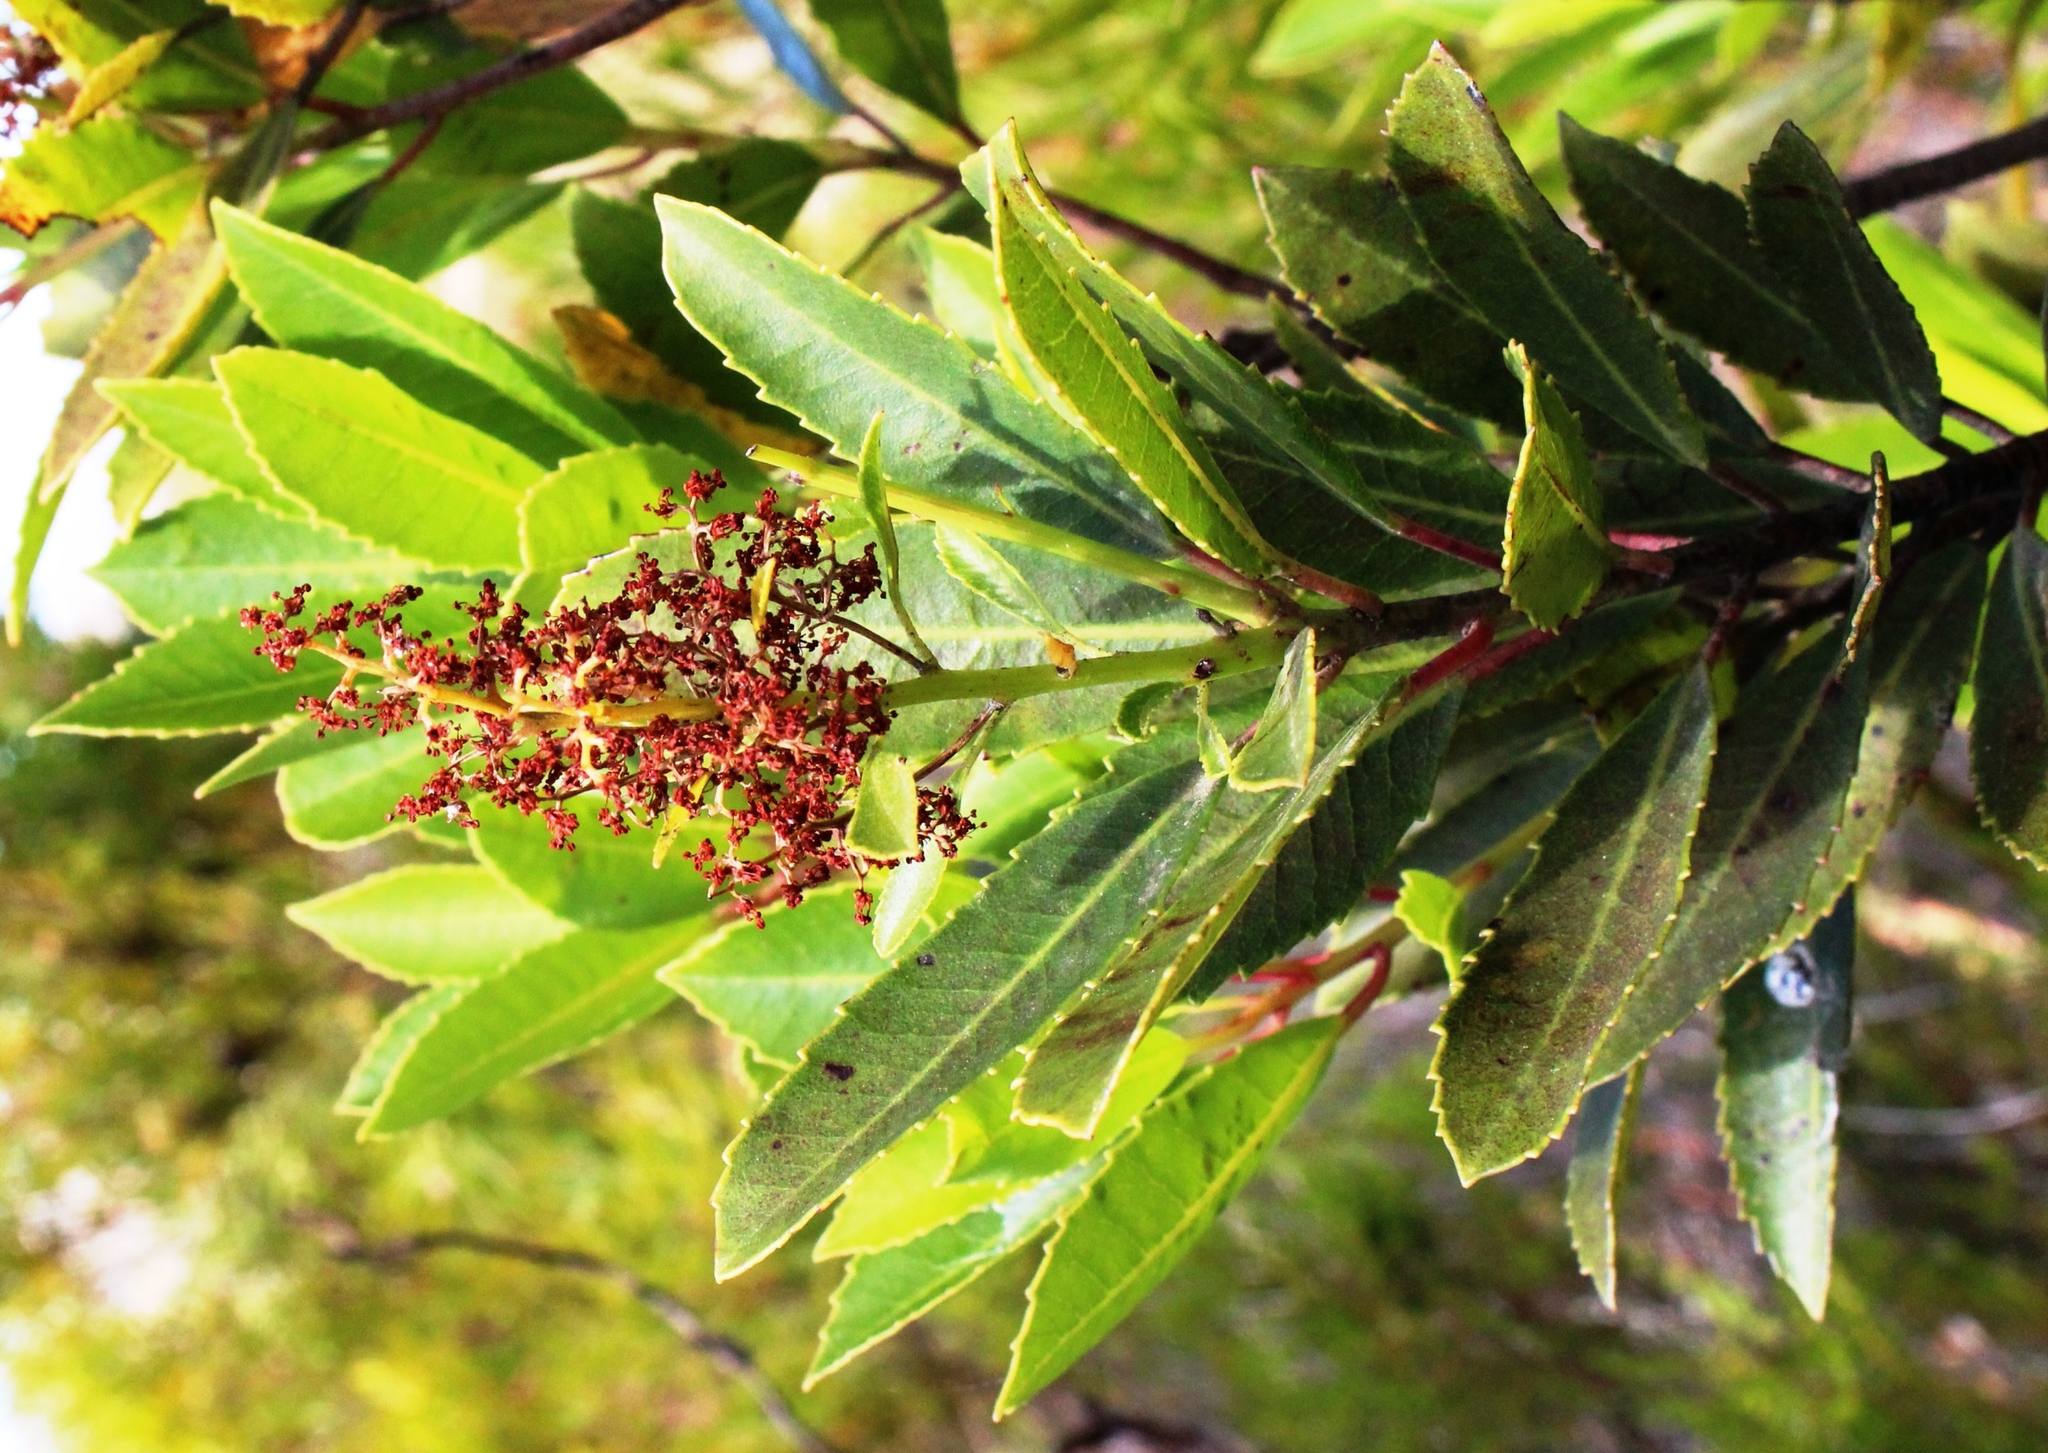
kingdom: Plantae
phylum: Tracheophyta
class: Magnoliopsida
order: Sapindales
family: Anacardiaceae
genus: Laurophyllus
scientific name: Laurophyllus capensis
